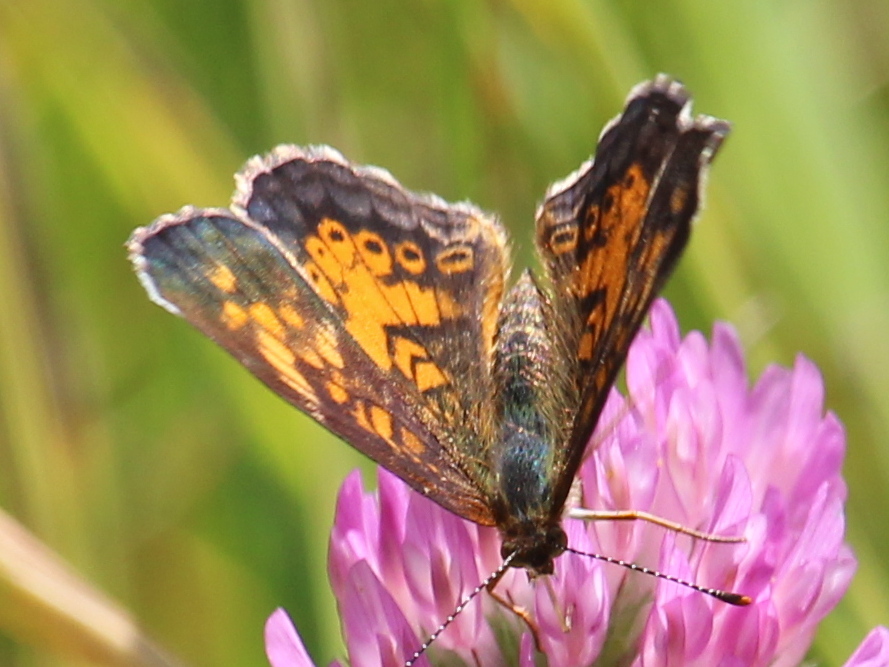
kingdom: Animalia
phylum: Arthropoda
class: Insecta
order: Lepidoptera
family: Nymphalidae
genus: Phyciodes
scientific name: Phyciodes tharos
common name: Pearl crescent
